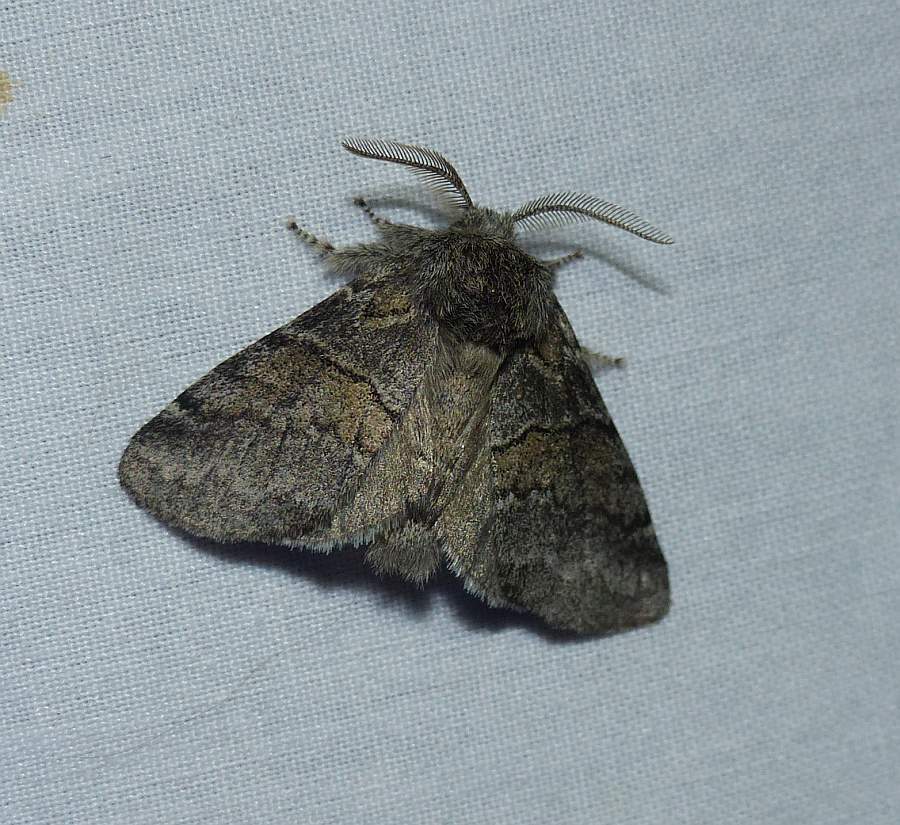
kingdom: Animalia
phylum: Arthropoda
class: Insecta
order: Lepidoptera
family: Notodontidae
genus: Gluphisia
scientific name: Gluphisia septentrionis
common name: Common gluphisia
